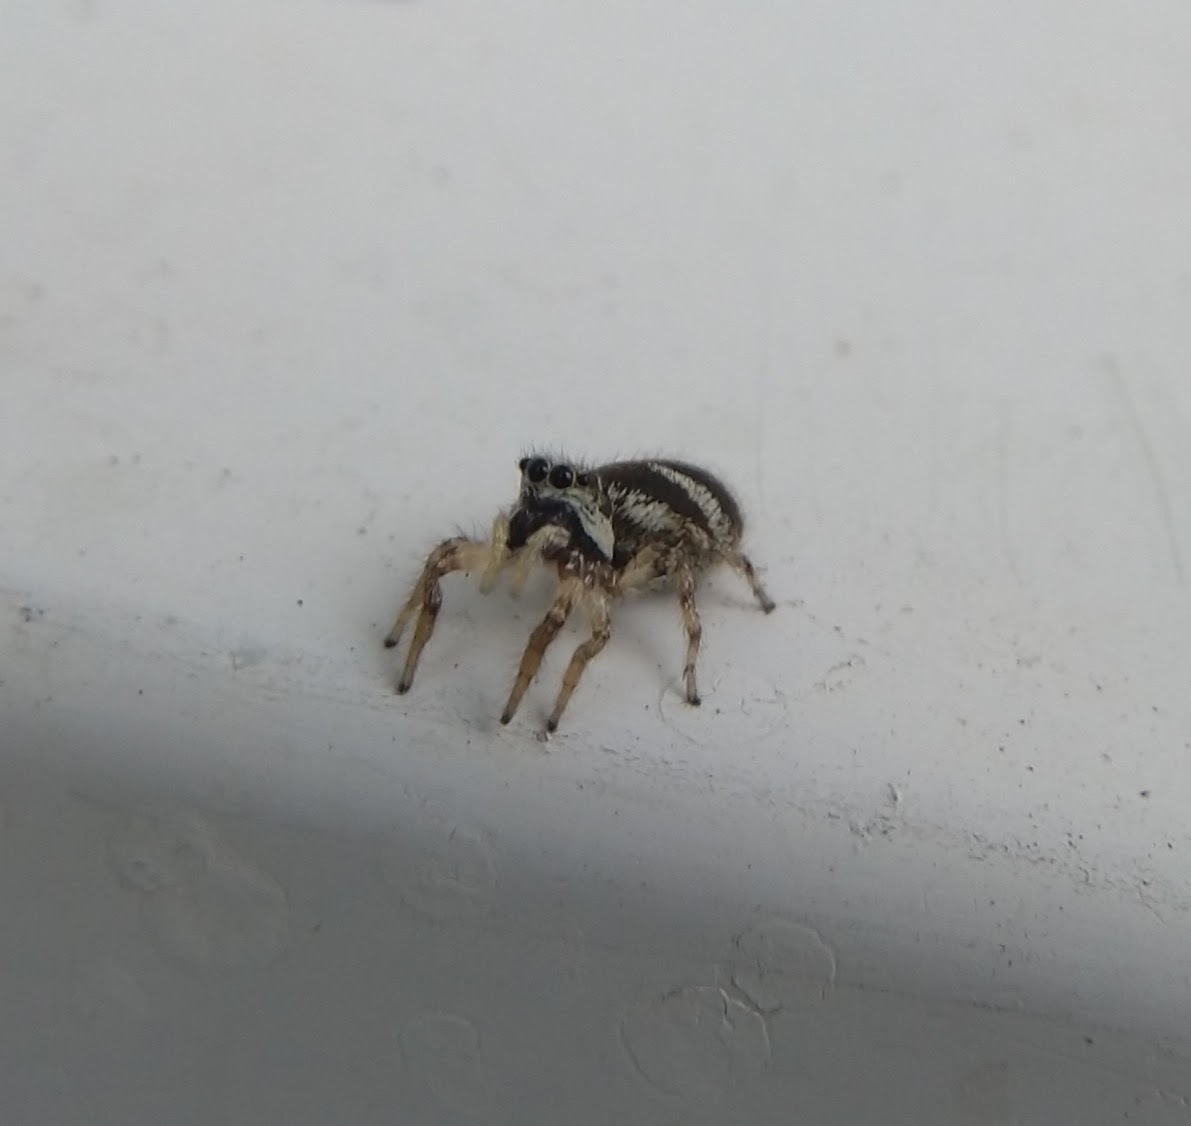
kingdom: Animalia
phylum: Arthropoda
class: Arachnida
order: Araneae
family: Salticidae
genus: Salticus
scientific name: Salticus scenicus
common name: Zebra jumper
